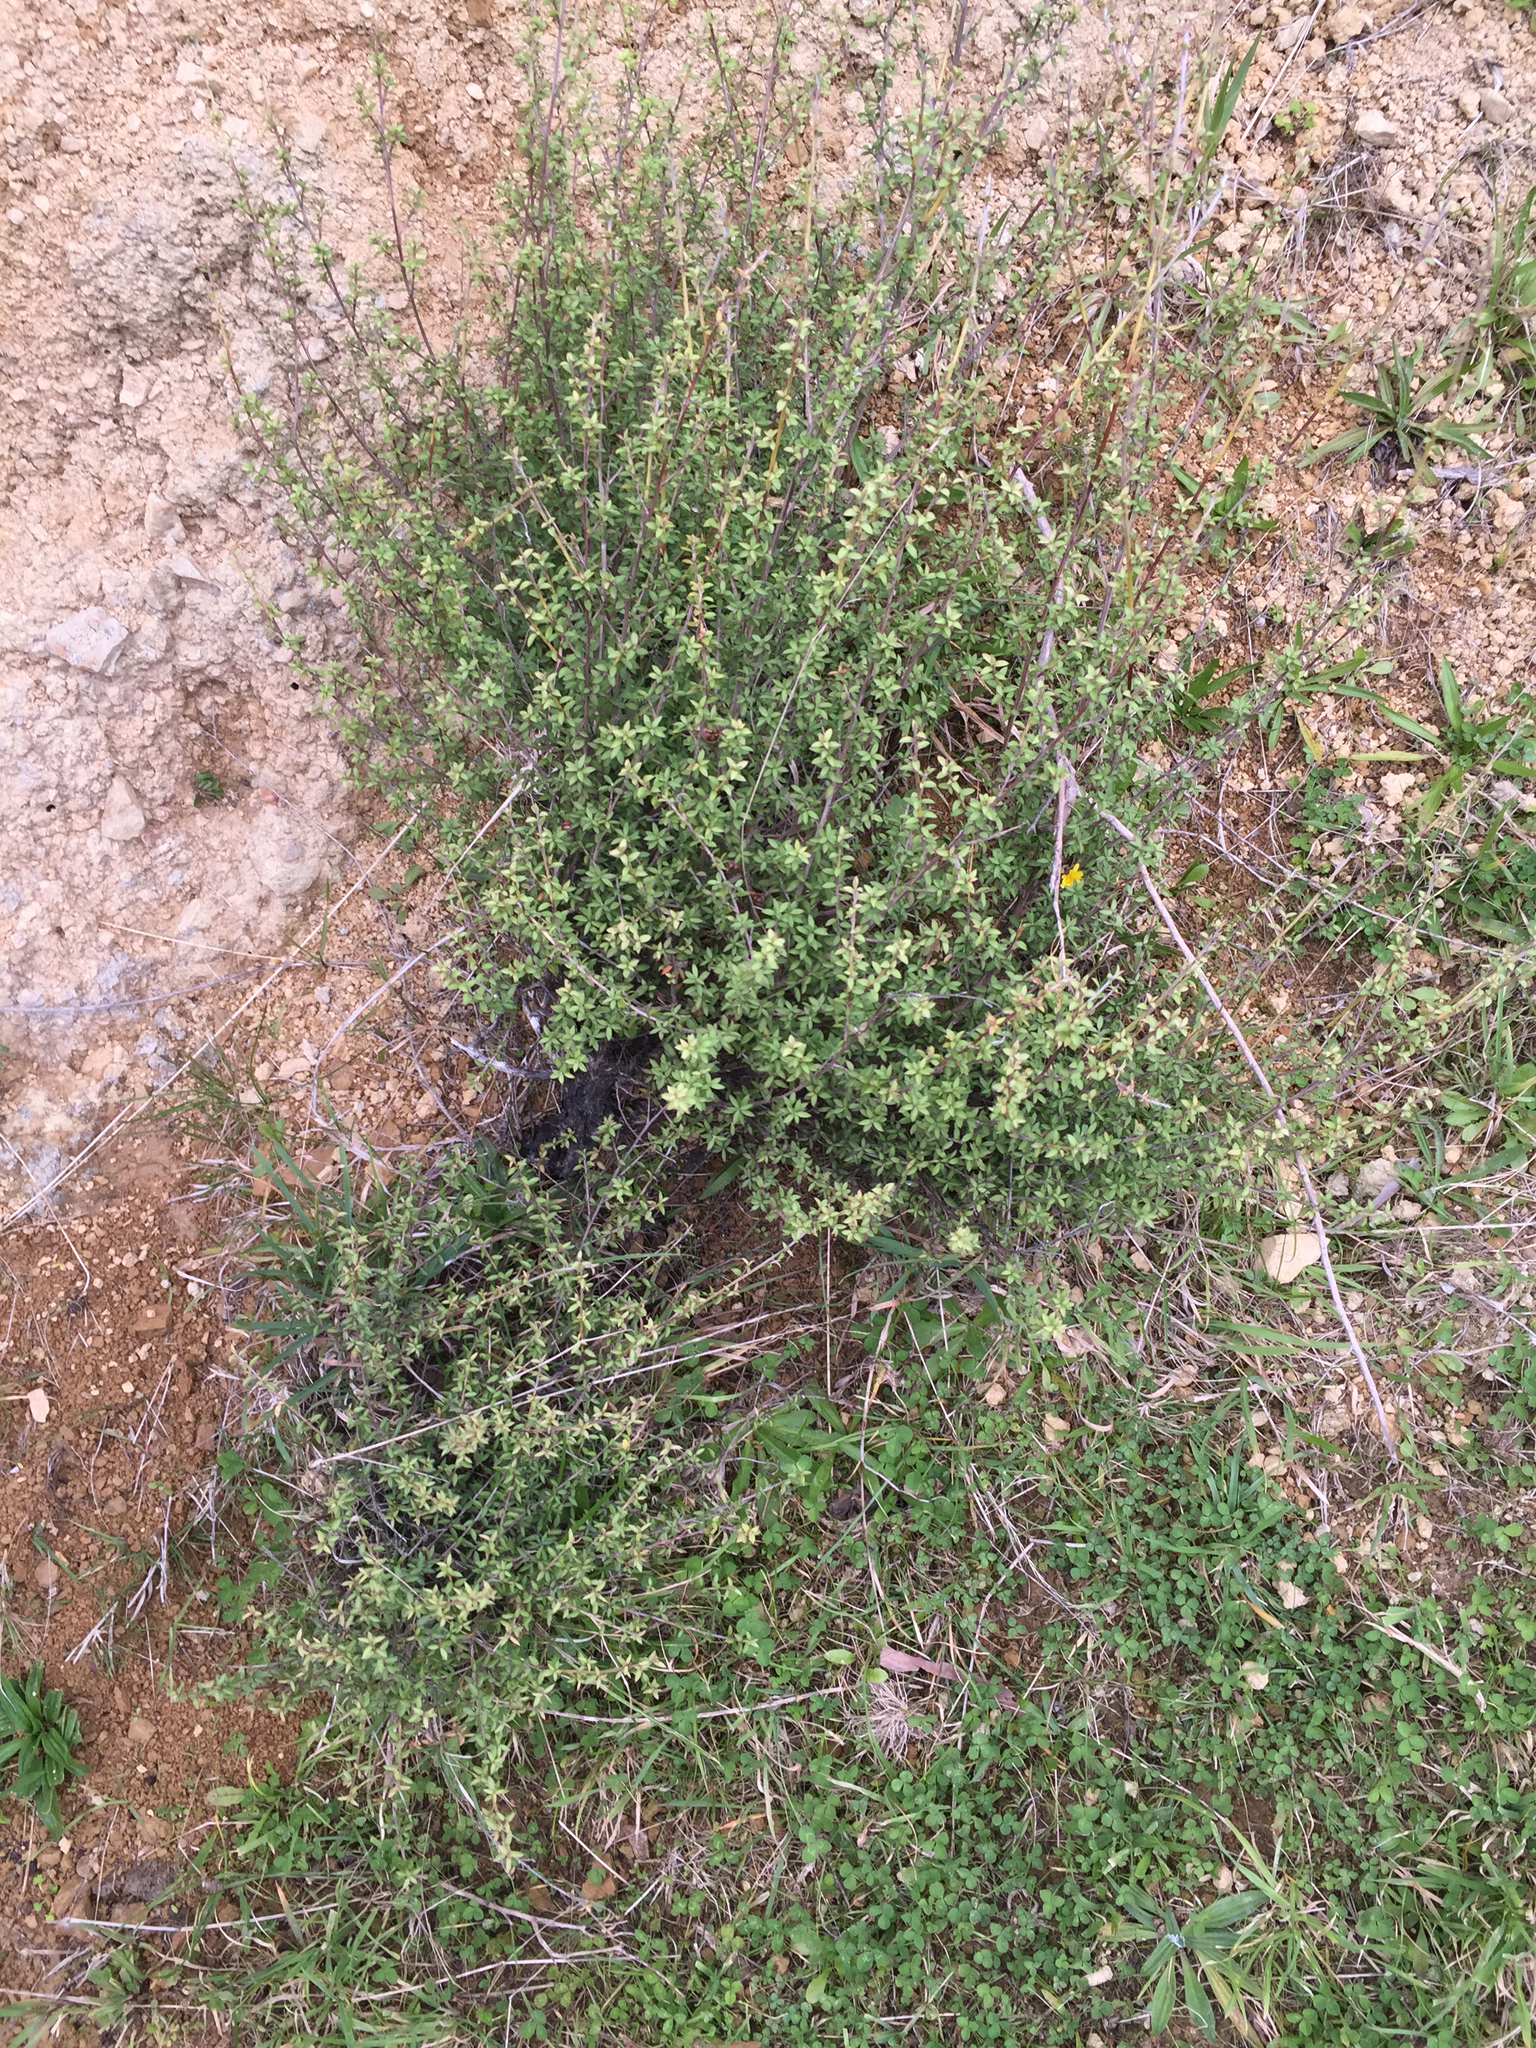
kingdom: Plantae
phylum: Tracheophyta
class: Magnoliopsida
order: Myrtales
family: Myrtaceae
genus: Leptospermum
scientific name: Leptospermum scoparium
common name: Broom tea-tree
